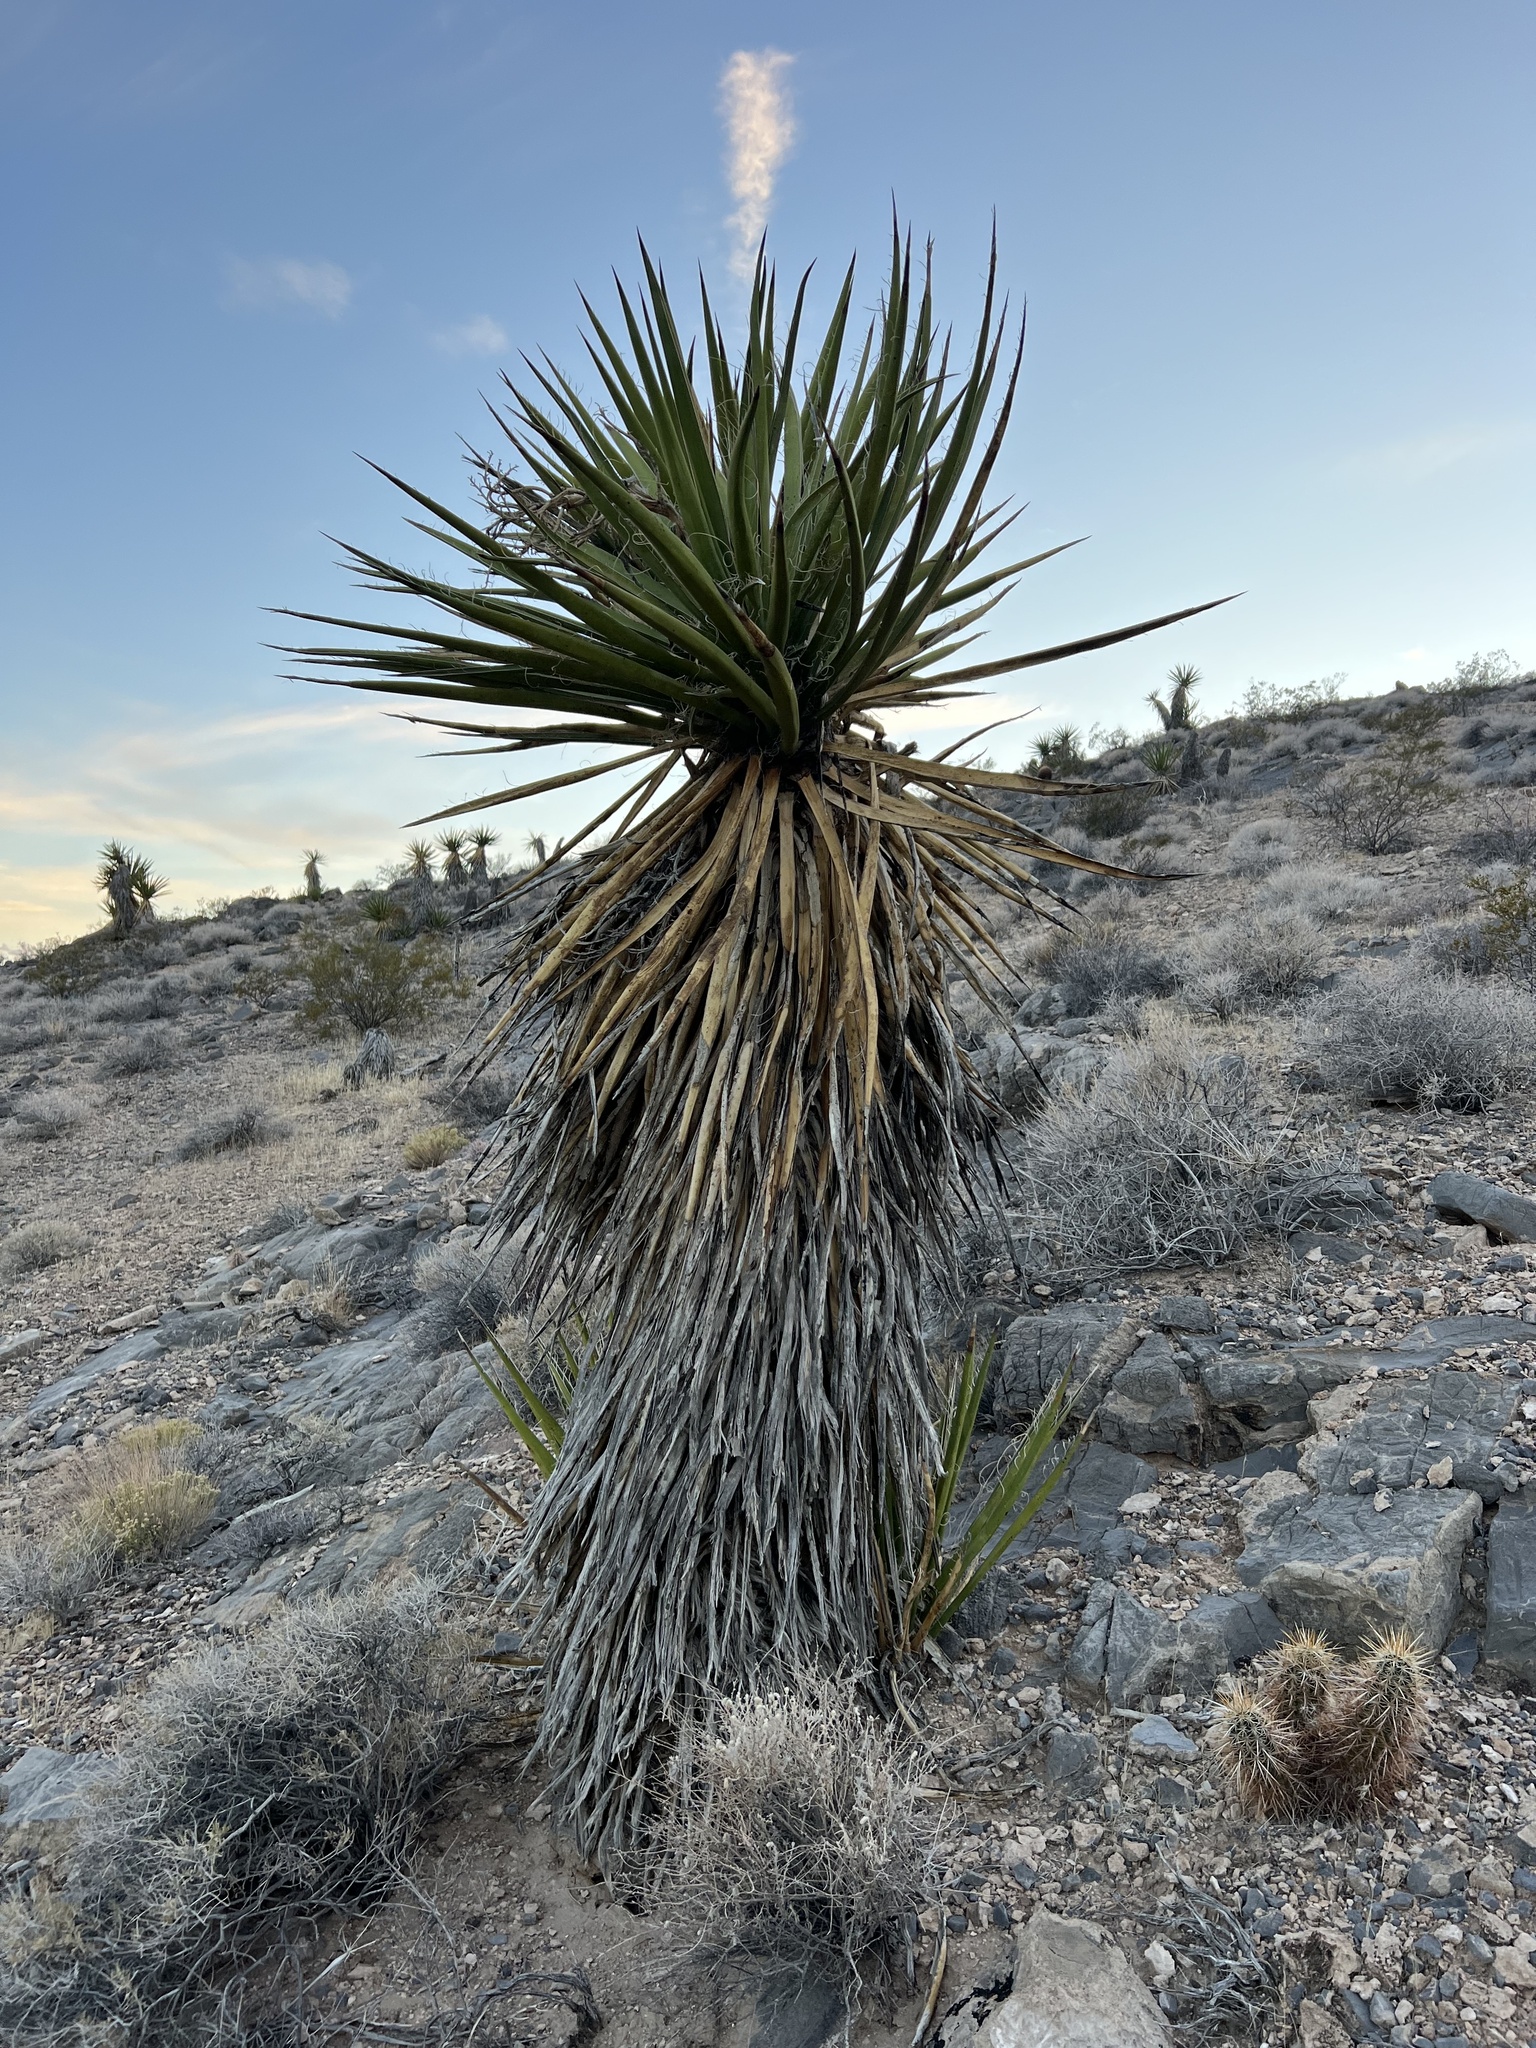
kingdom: Plantae
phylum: Tracheophyta
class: Liliopsida
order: Asparagales
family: Asparagaceae
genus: Yucca
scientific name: Yucca schidigera
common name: Mojave yucca
